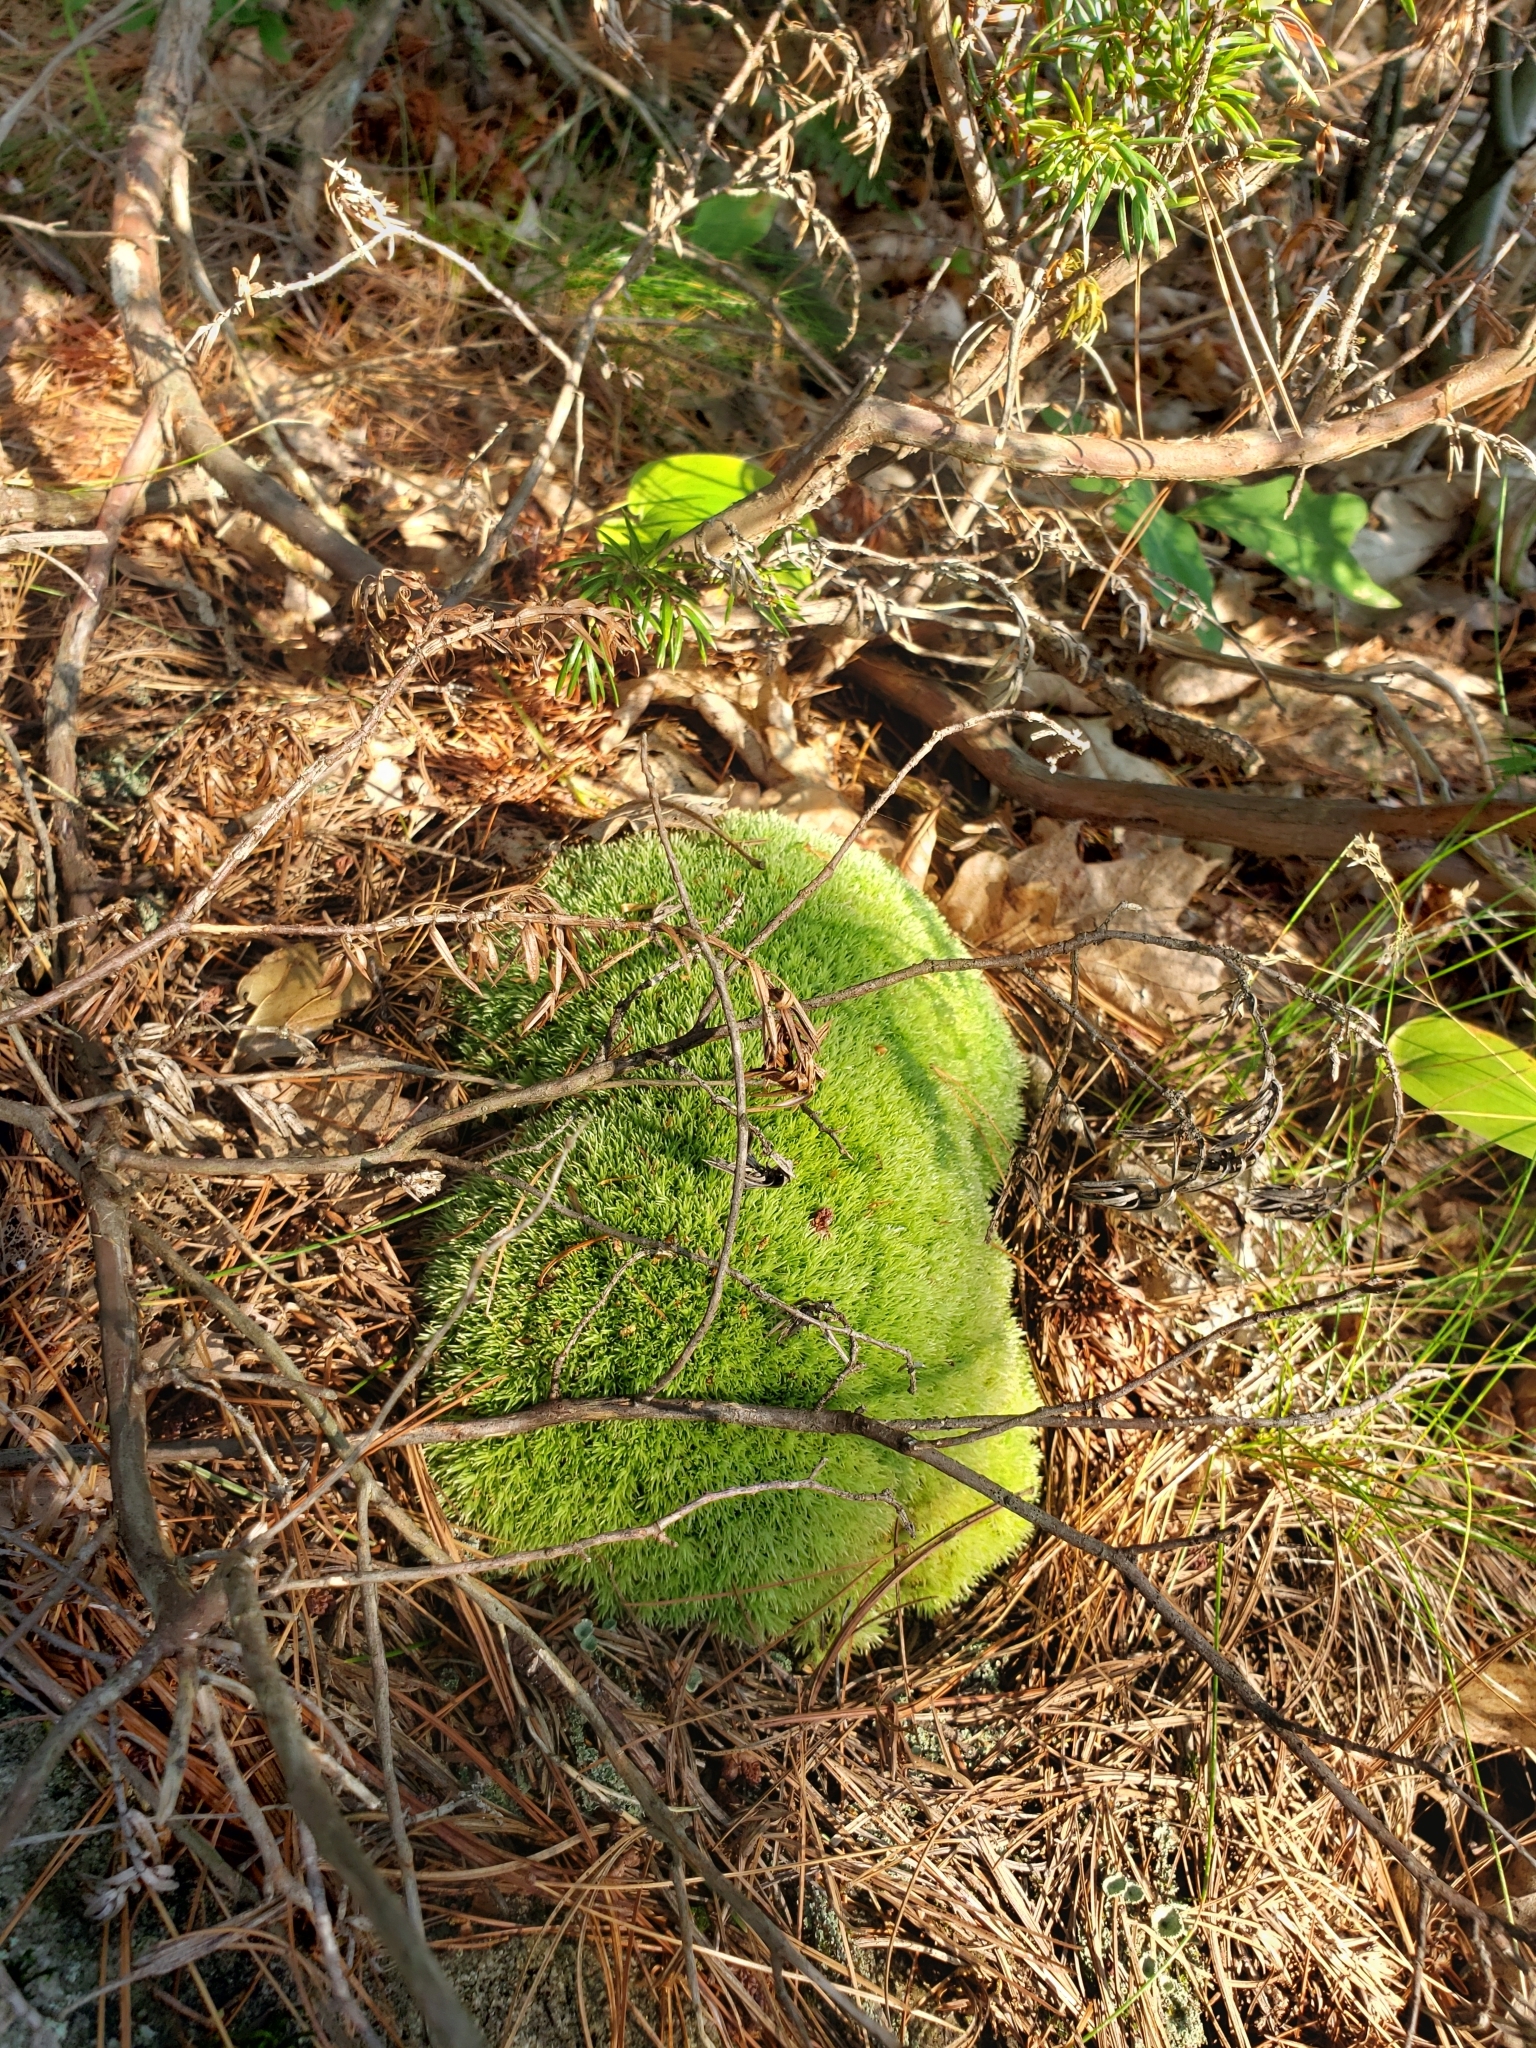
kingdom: Plantae
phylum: Bryophyta
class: Bryopsida
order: Dicranales
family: Leucobryaceae
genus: Leucobryum
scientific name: Leucobryum glaucum
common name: Large white-moss
